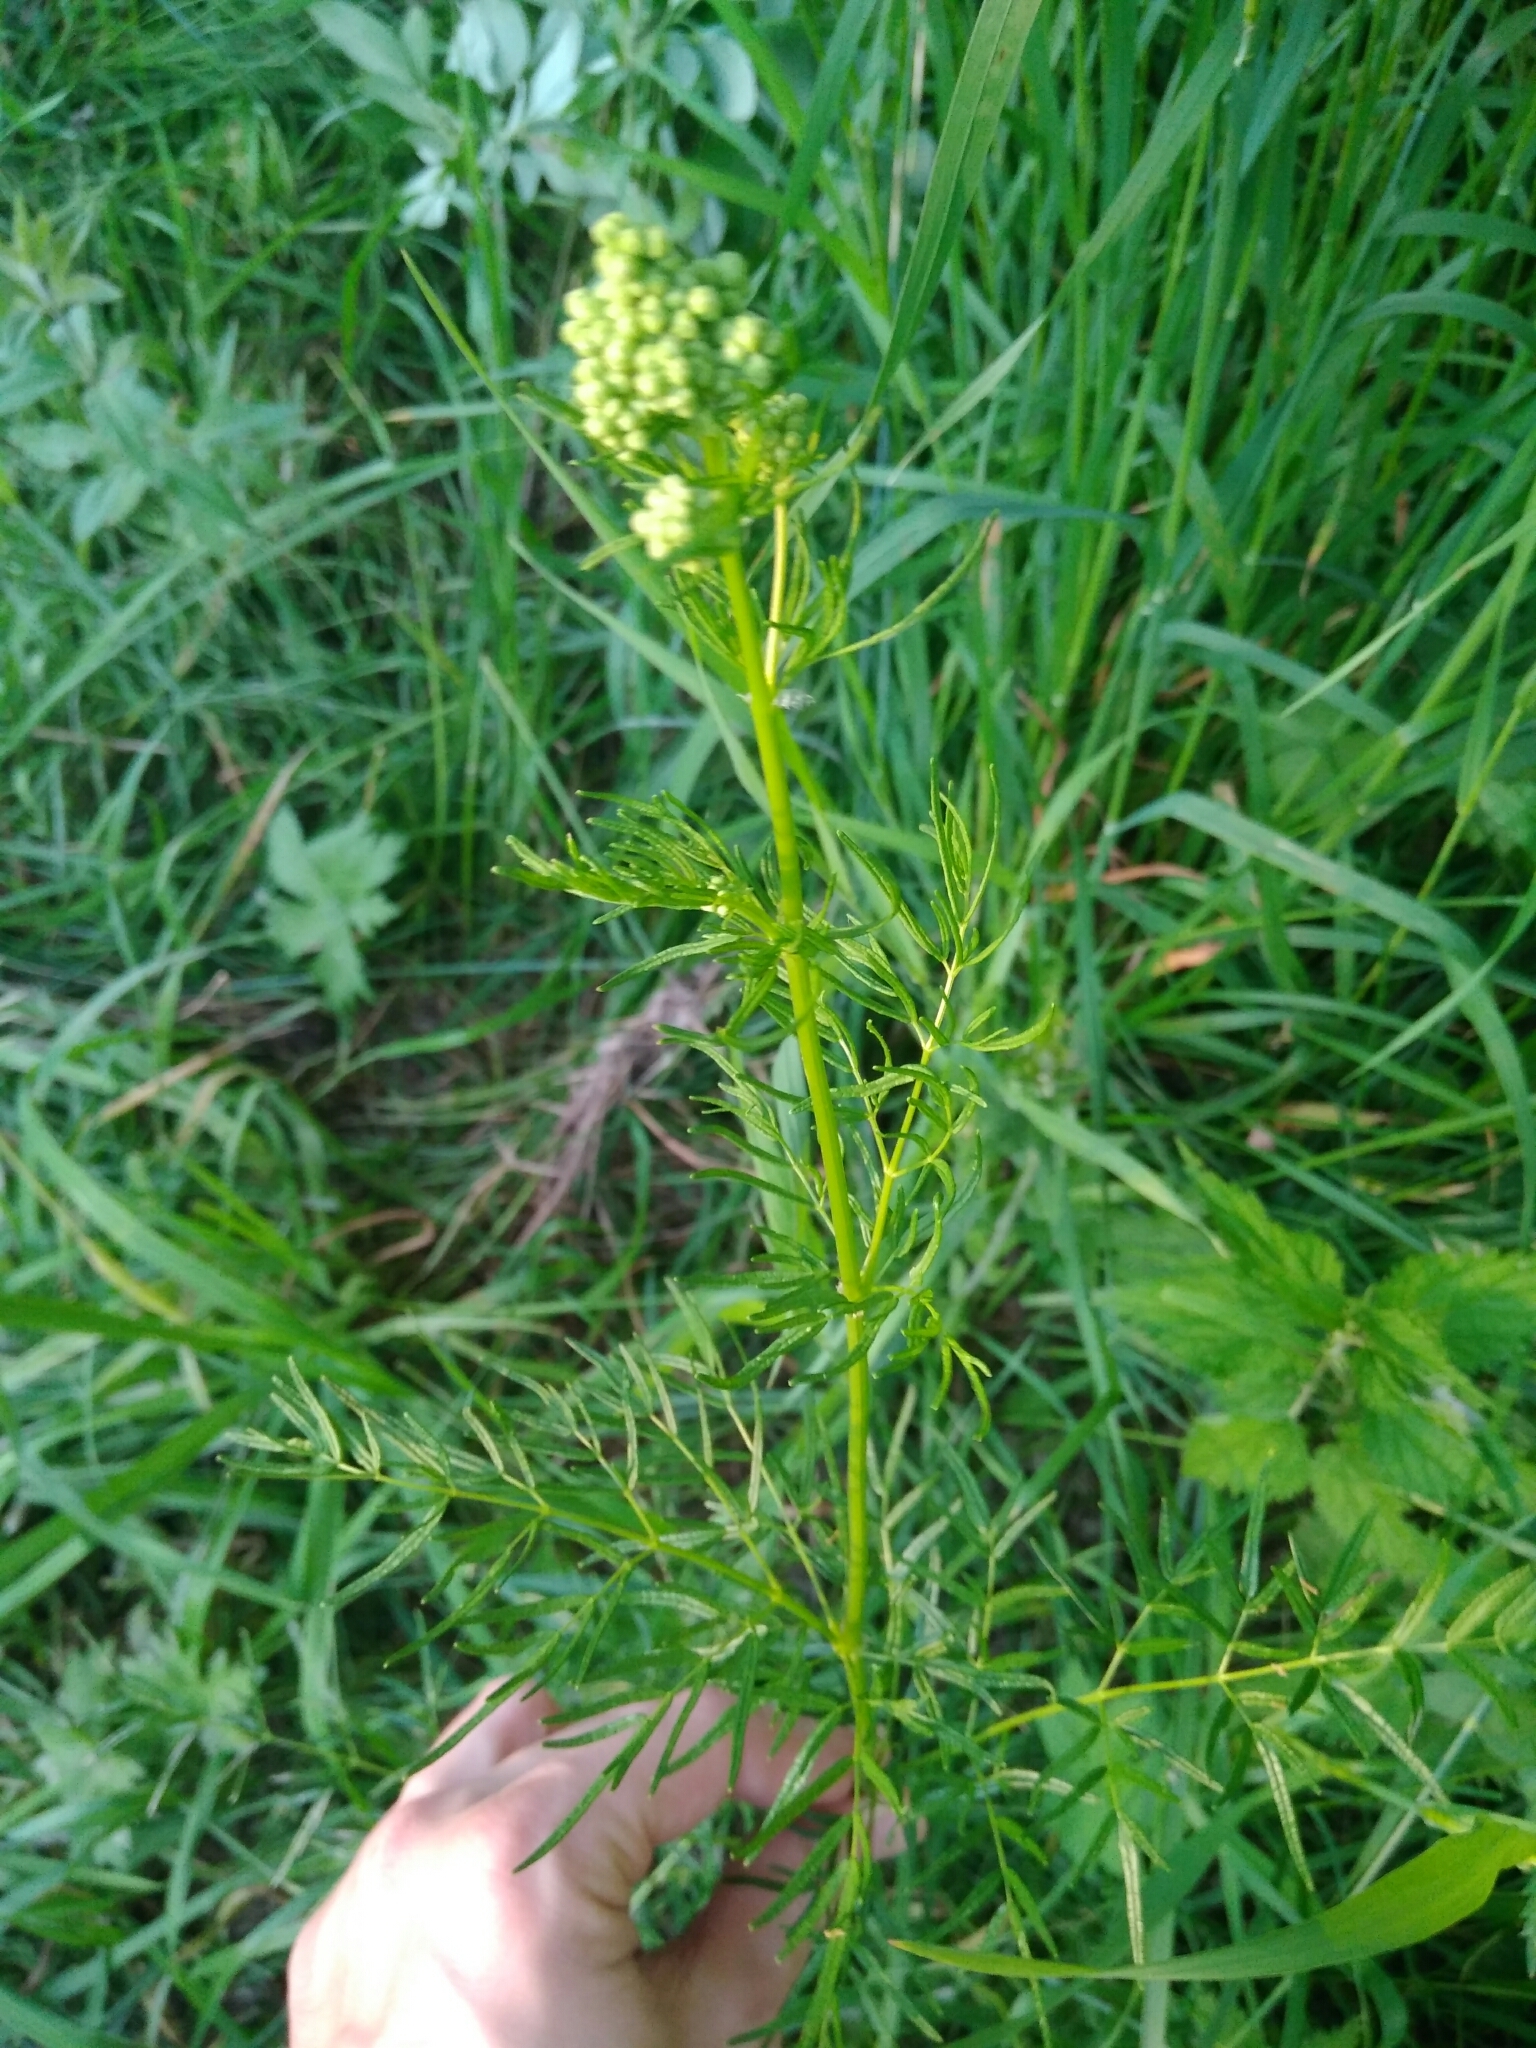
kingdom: Plantae
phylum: Tracheophyta
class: Magnoliopsida
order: Ranunculales
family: Ranunculaceae
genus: Thalictrum
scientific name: Thalictrum lucidum
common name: Shining meadow-rue
